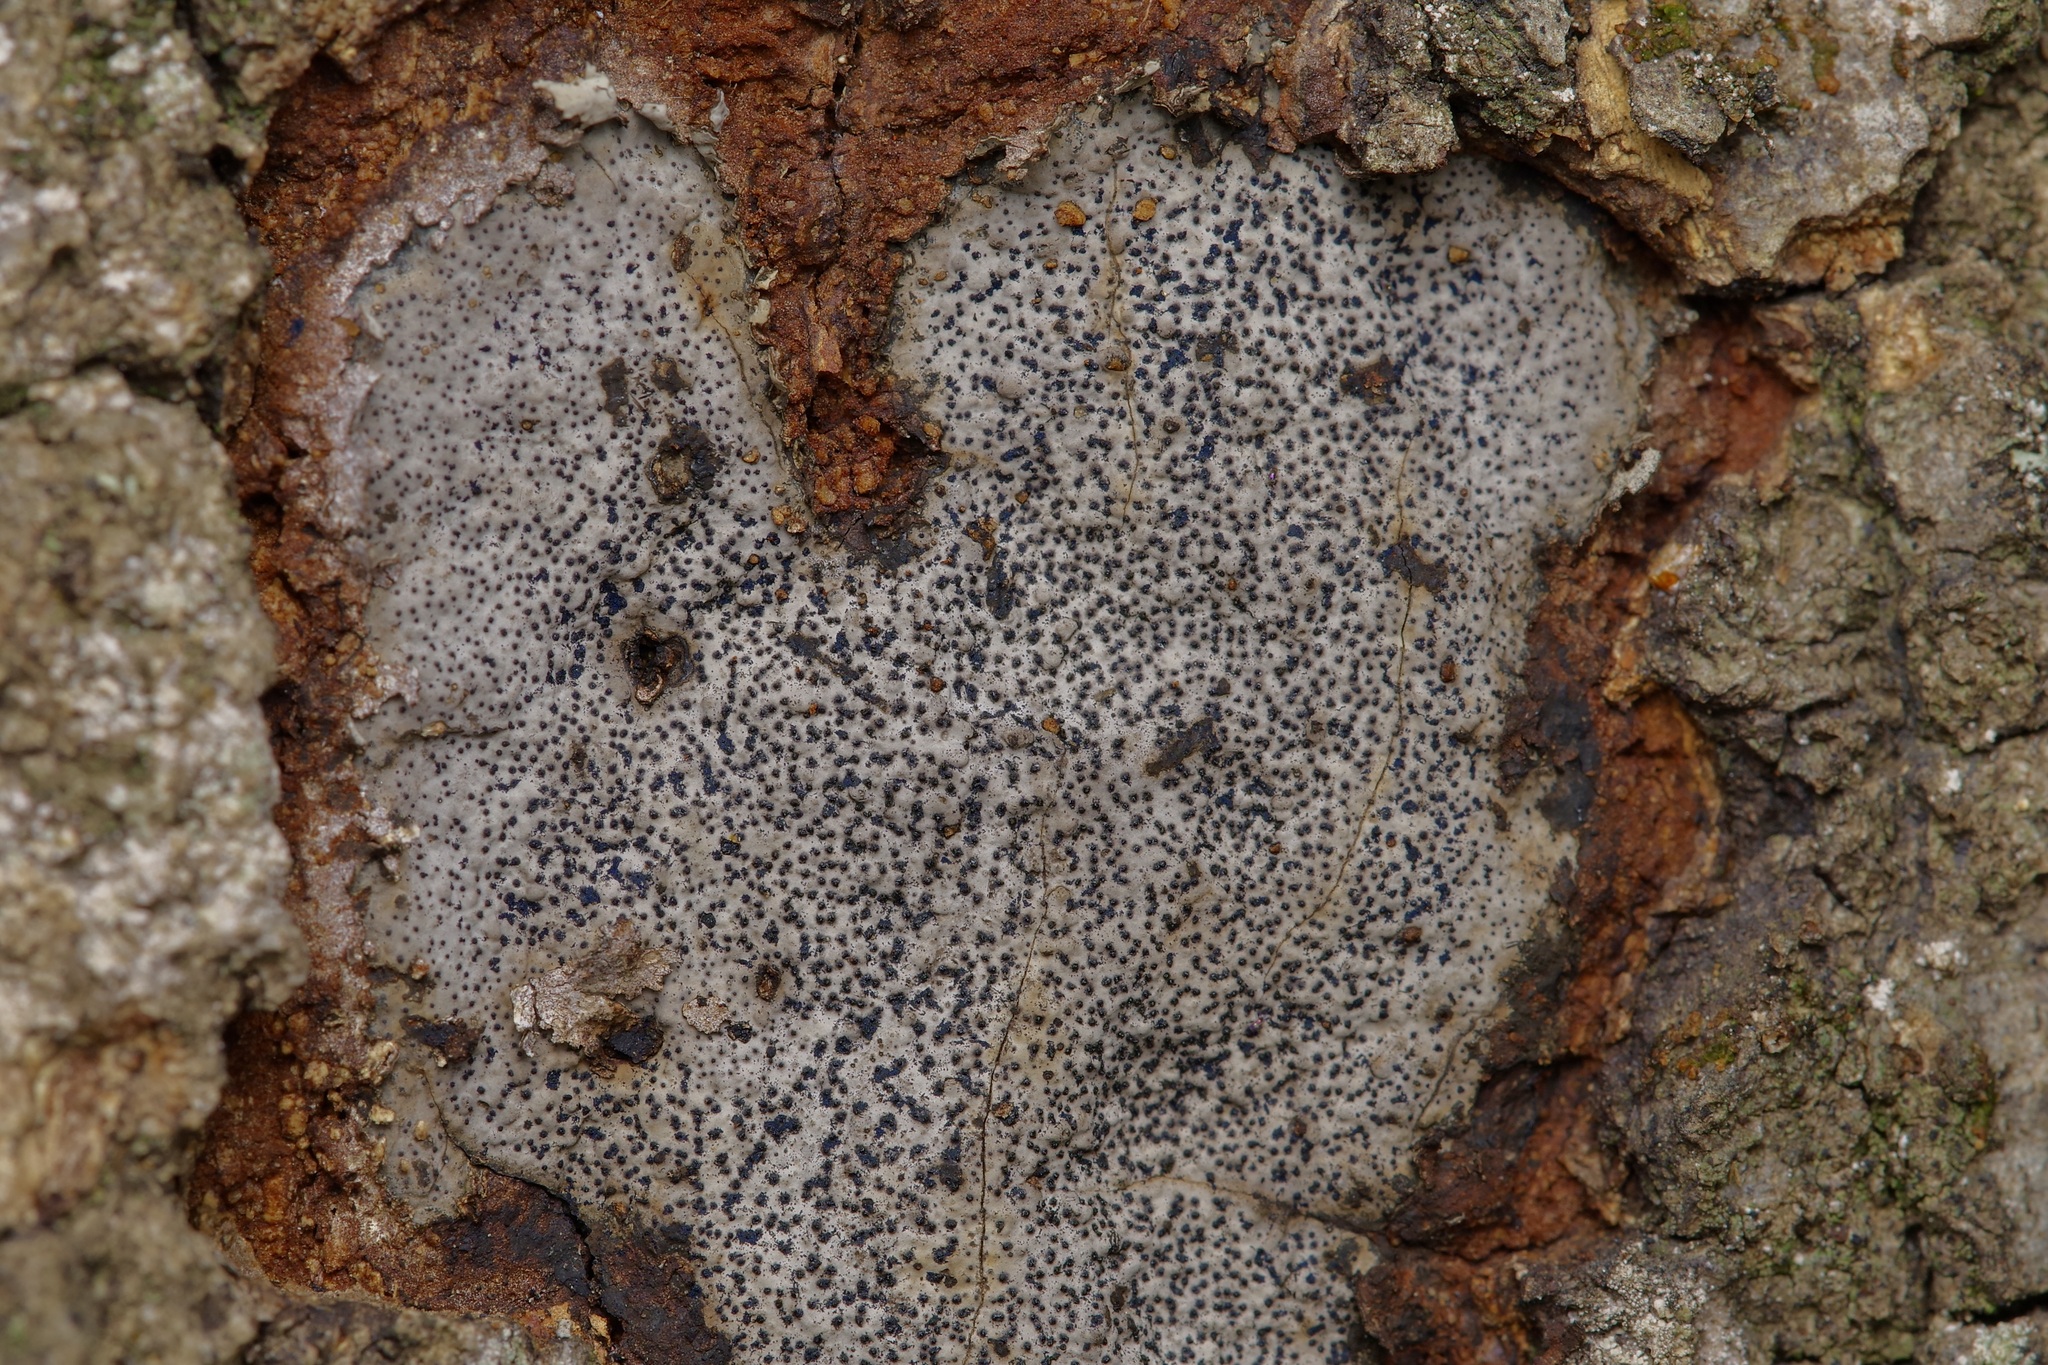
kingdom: Fungi
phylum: Ascomycota
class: Sordariomycetes
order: Xylariales
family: Graphostromataceae
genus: Biscogniauxia
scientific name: Biscogniauxia atropunctata
